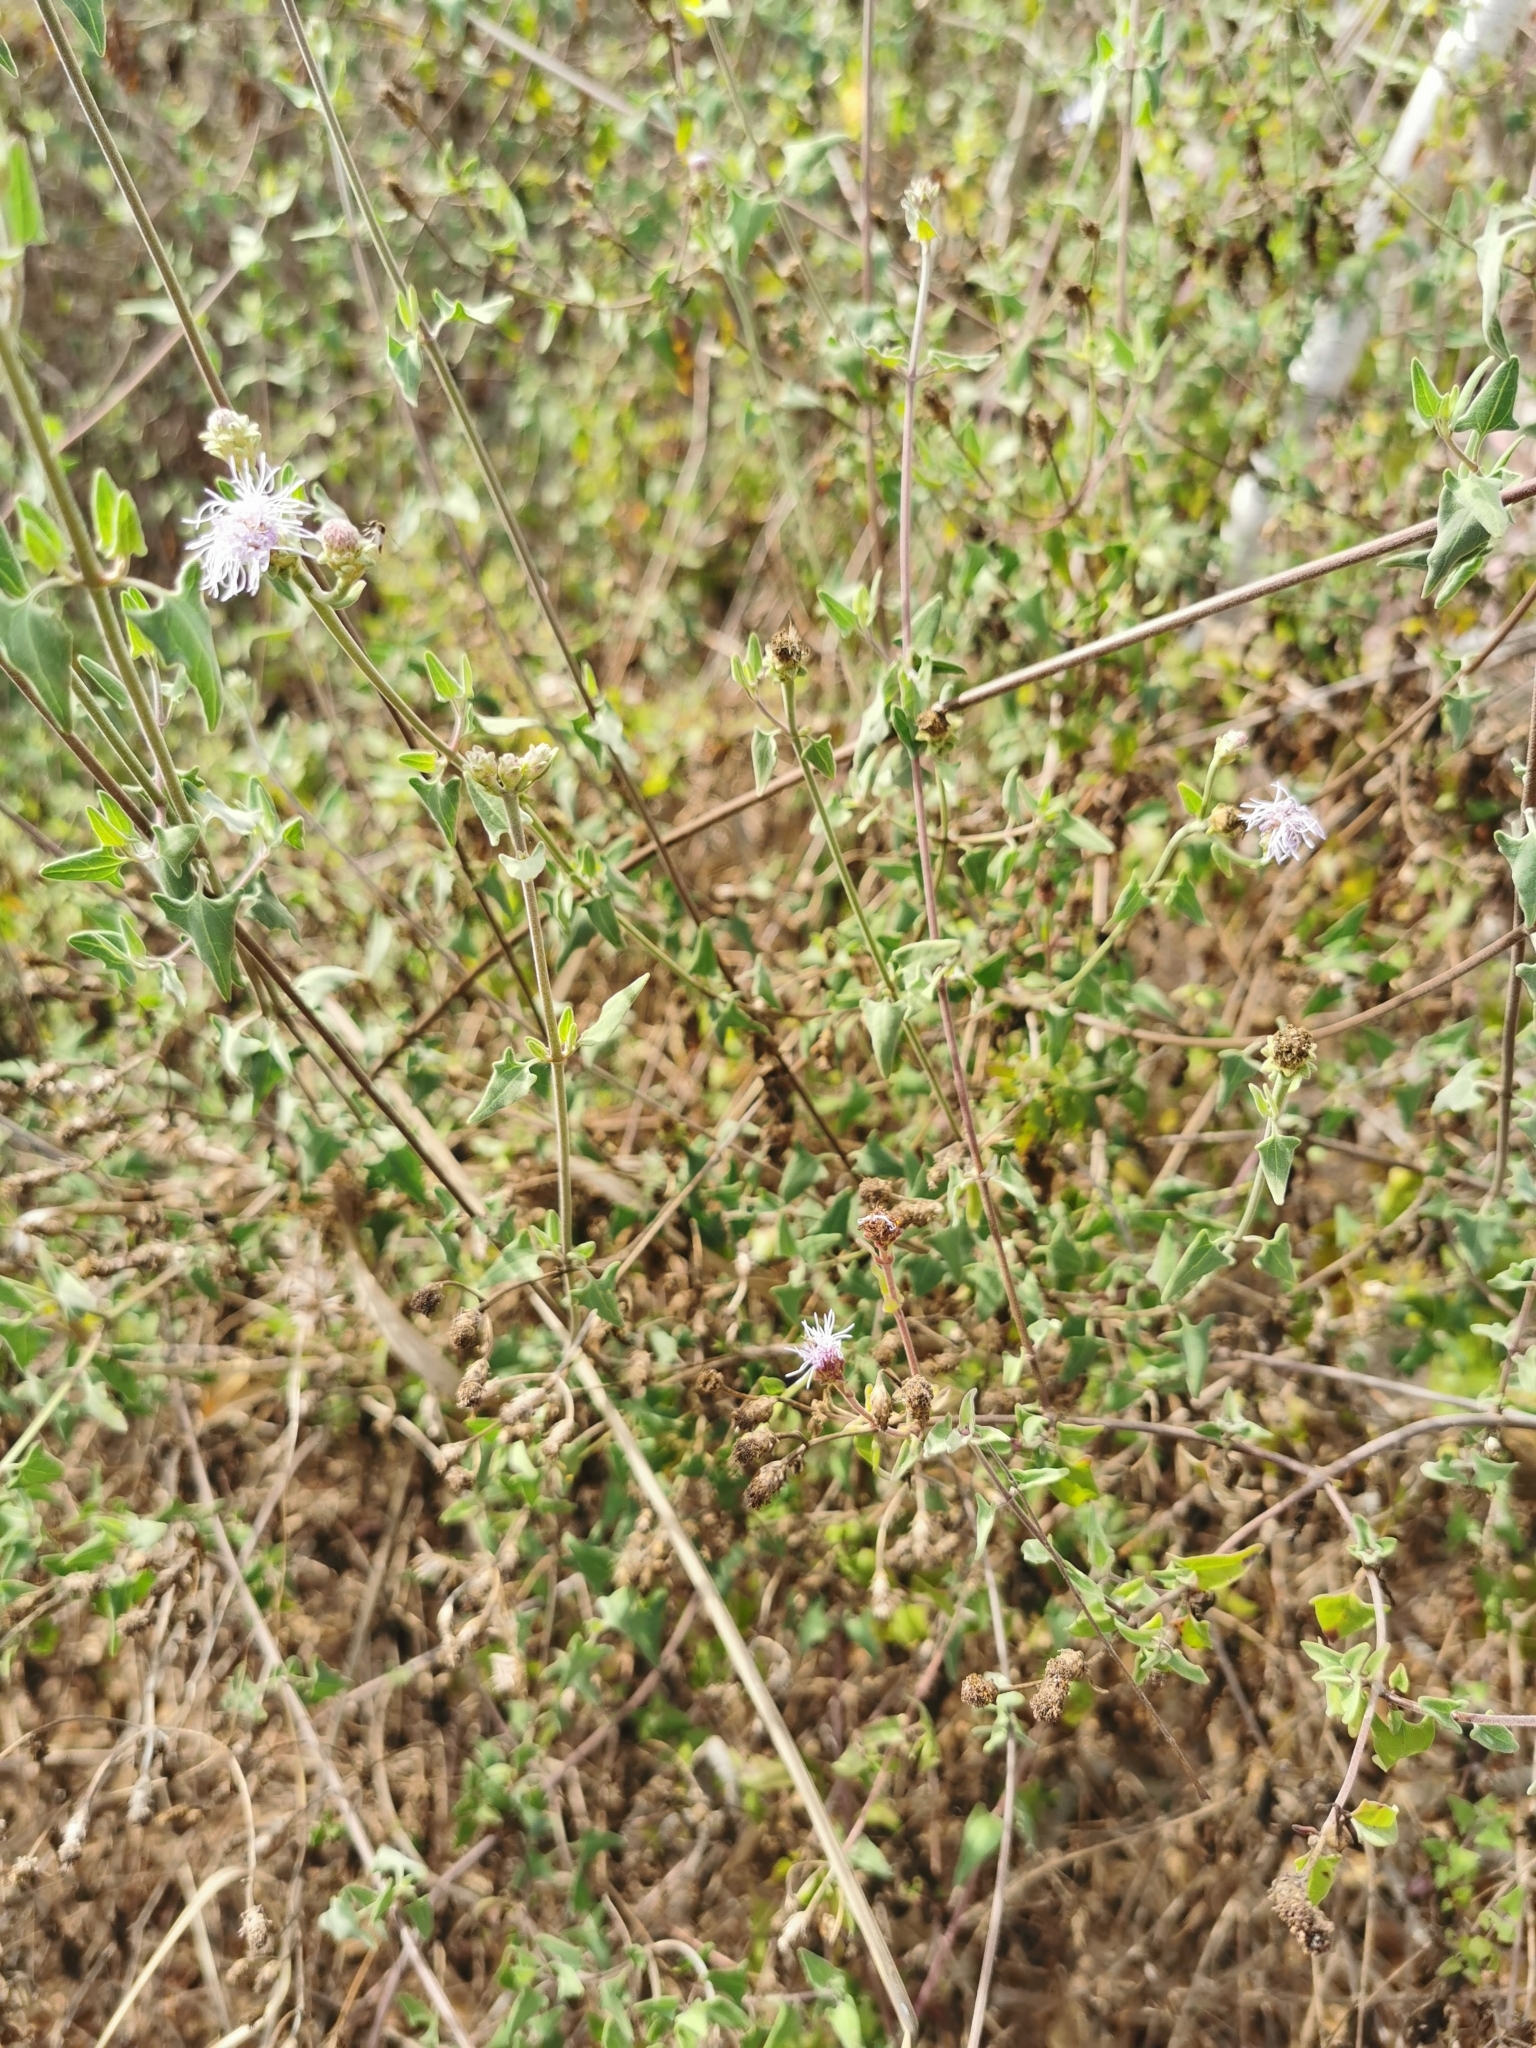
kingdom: Plantae
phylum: Tracheophyta
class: Magnoliopsida
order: Asterales
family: Asteraceae
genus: Chromolaena
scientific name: Chromolaena sagittata
